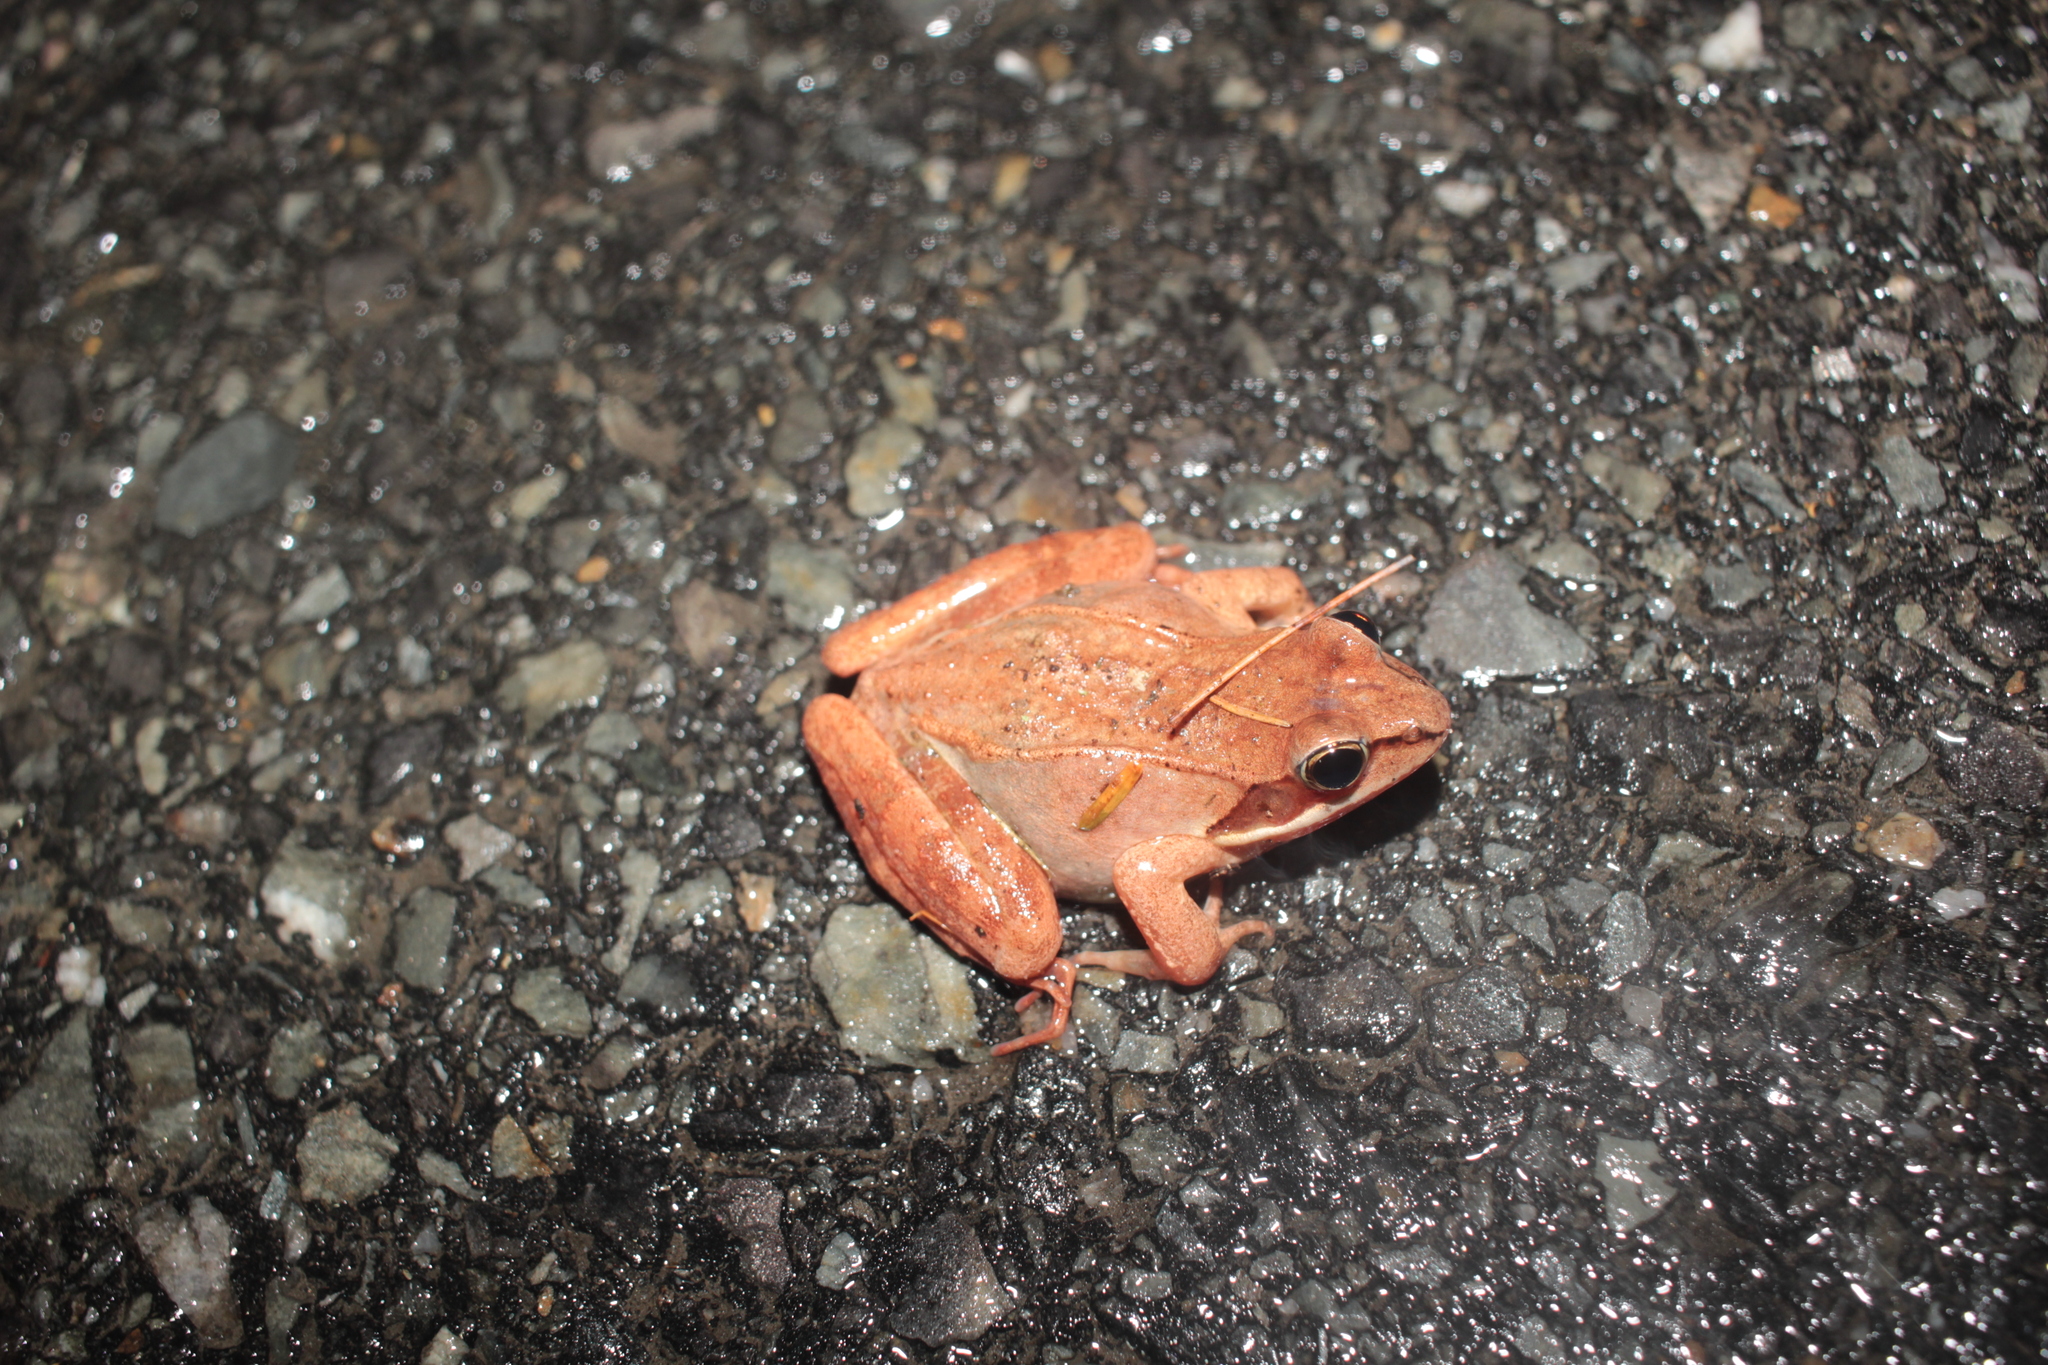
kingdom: Animalia
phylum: Chordata
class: Amphibia
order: Anura
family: Ranidae
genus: Lithobates
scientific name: Lithobates sylvaticus
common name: Wood frog
